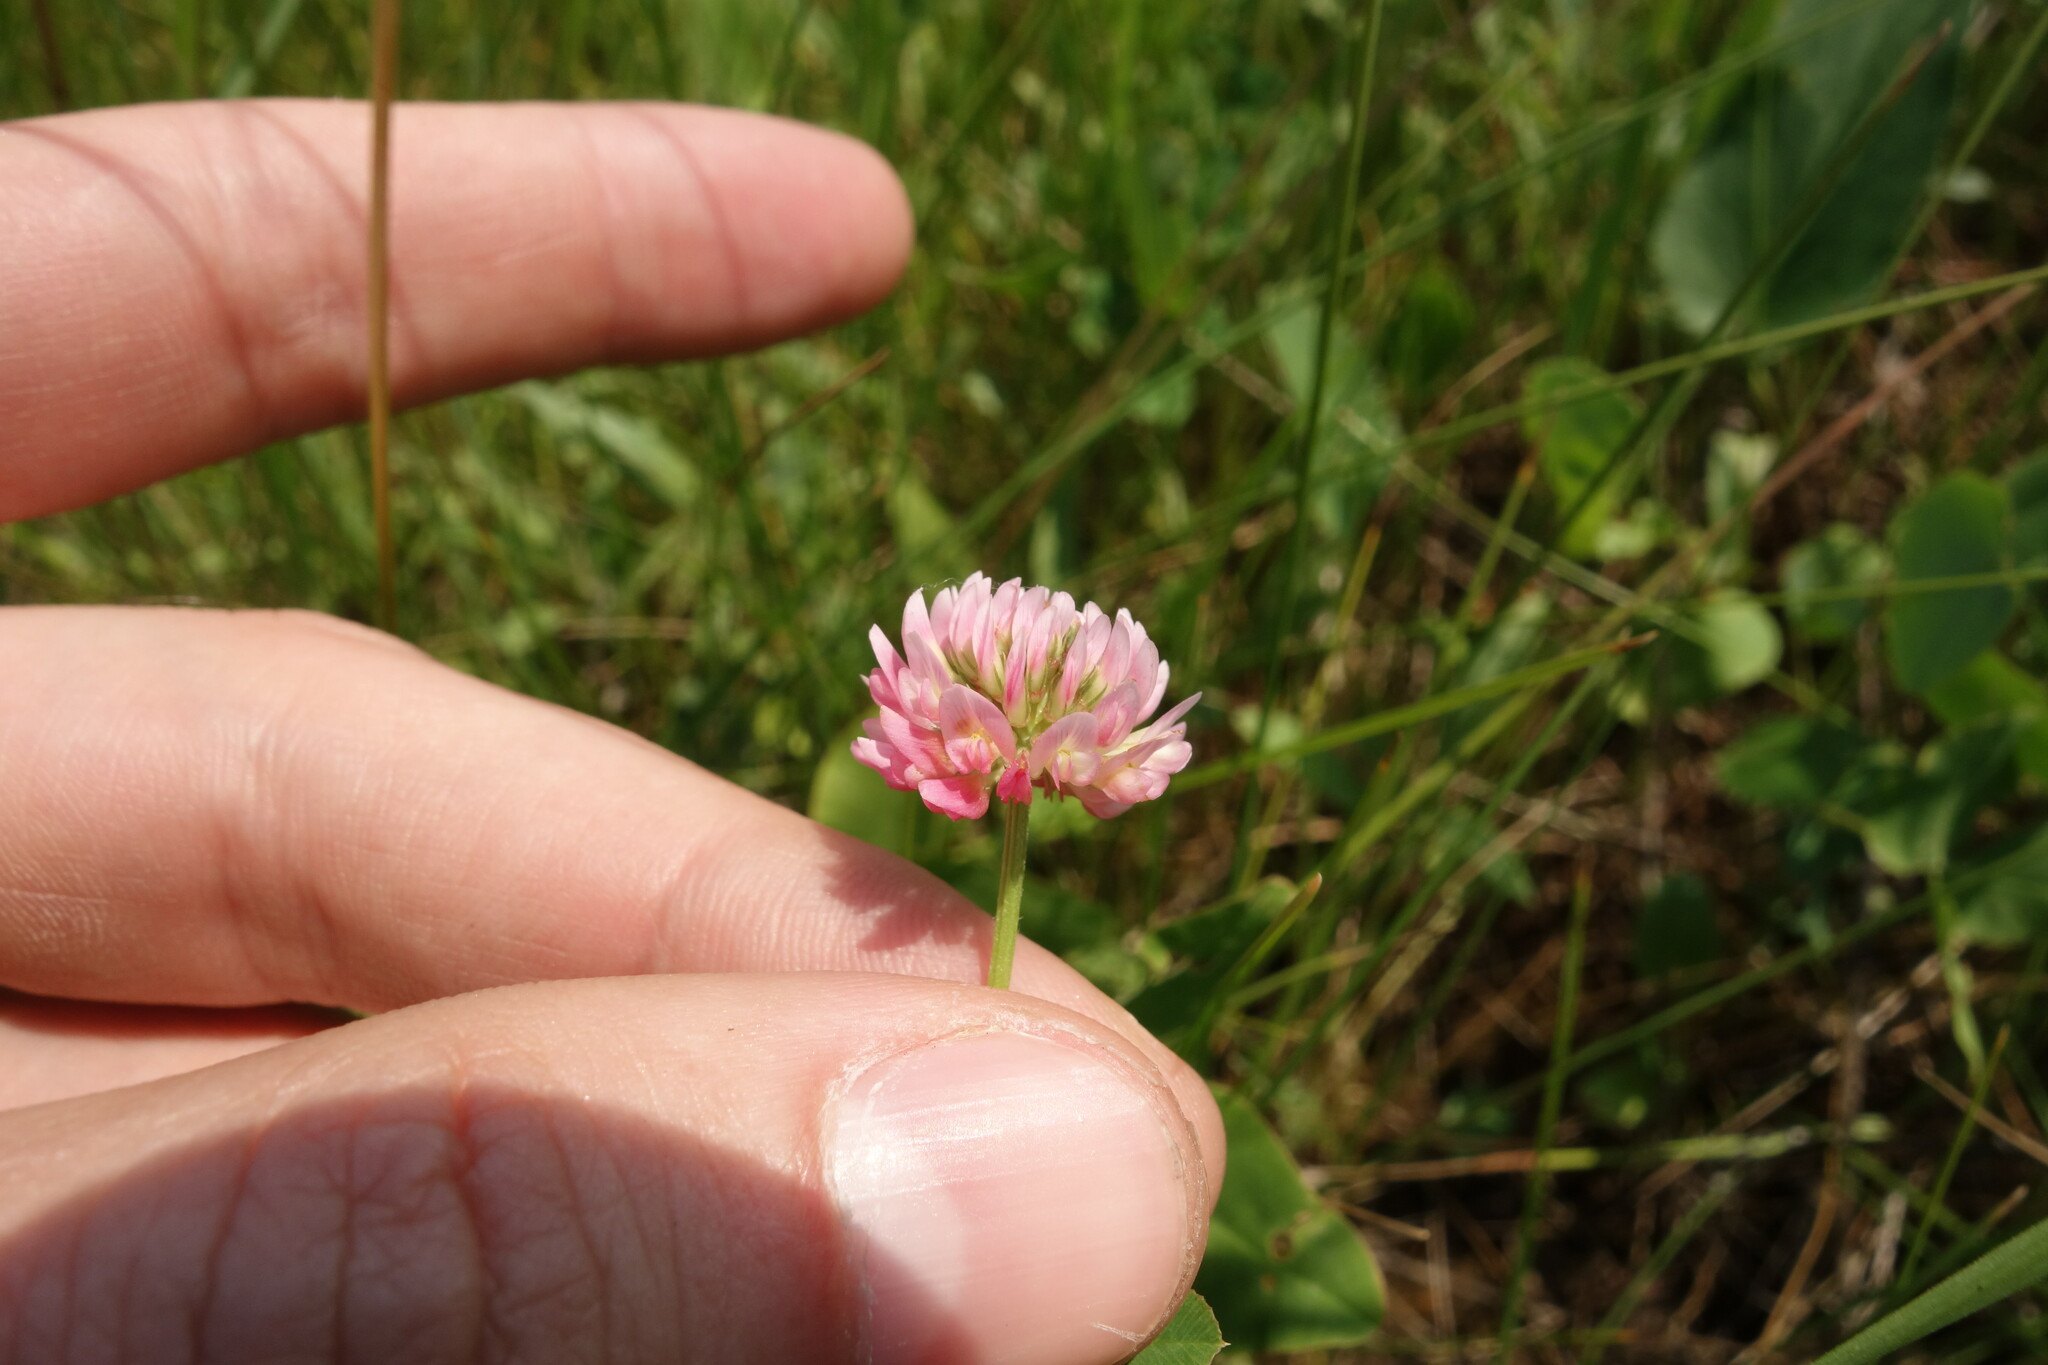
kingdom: Plantae
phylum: Tracheophyta
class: Magnoliopsida
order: Fabales
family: Fabaceae
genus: Trifolium
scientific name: Trifolium hybridum
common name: Alsike clover
